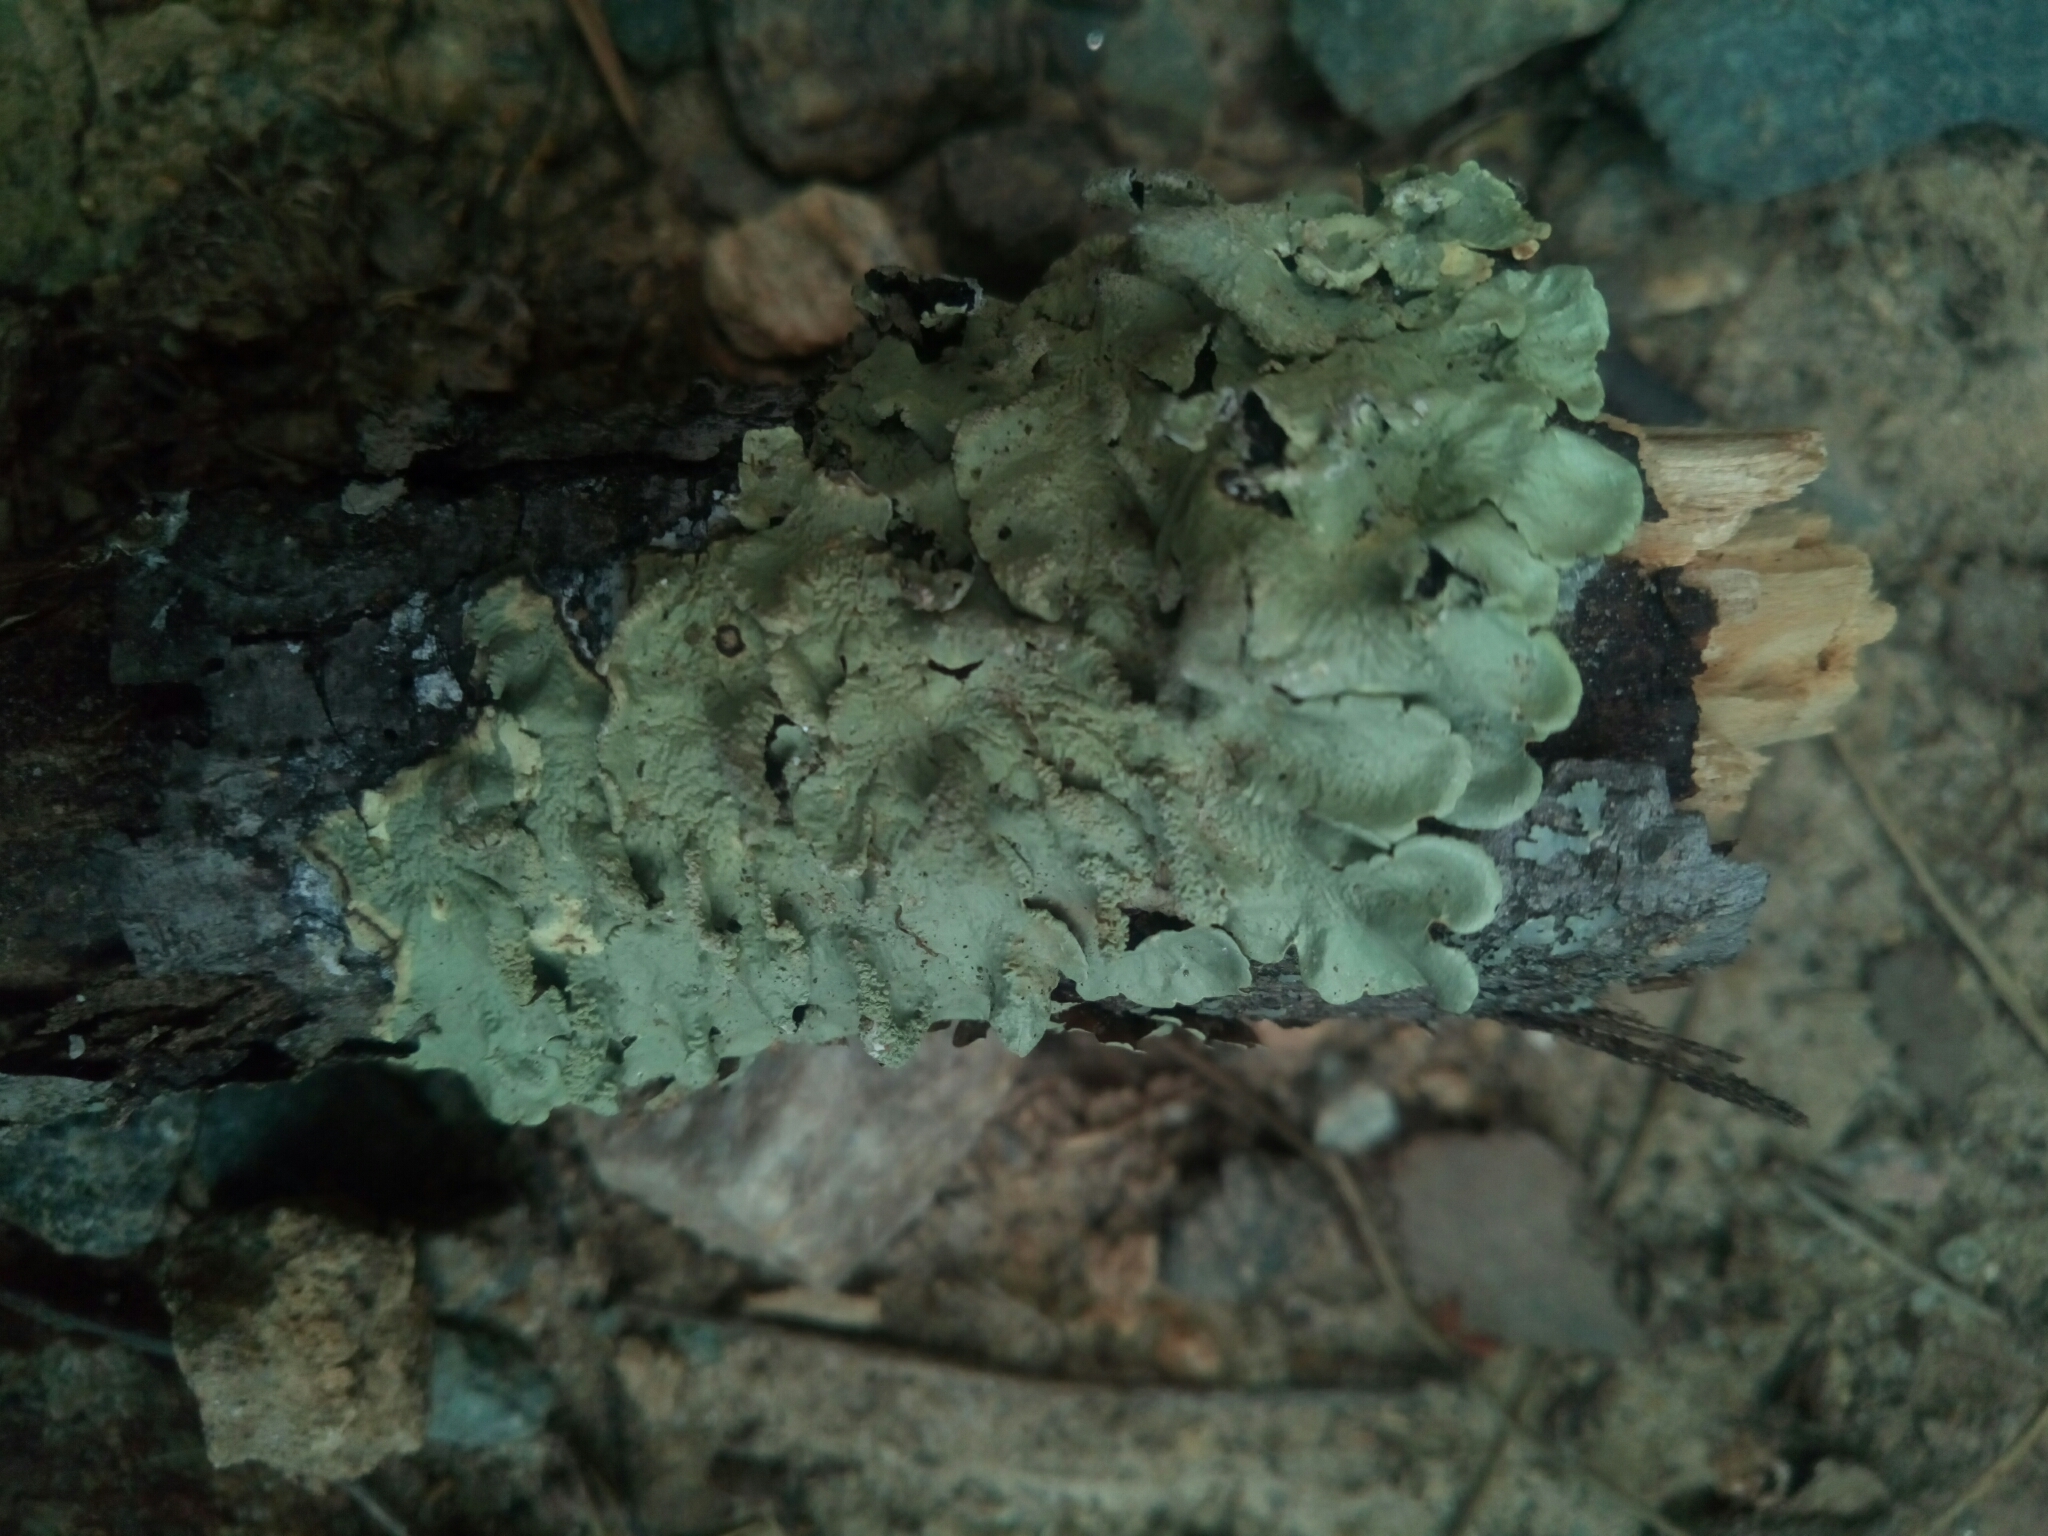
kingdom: Fungi
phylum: Ascomycota
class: Lecanoromycetes
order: Lecanorales
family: Parmeliaceae
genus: Flavoparmelia
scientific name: Flavoparmelia caperata
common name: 40-mile per hour lichen
